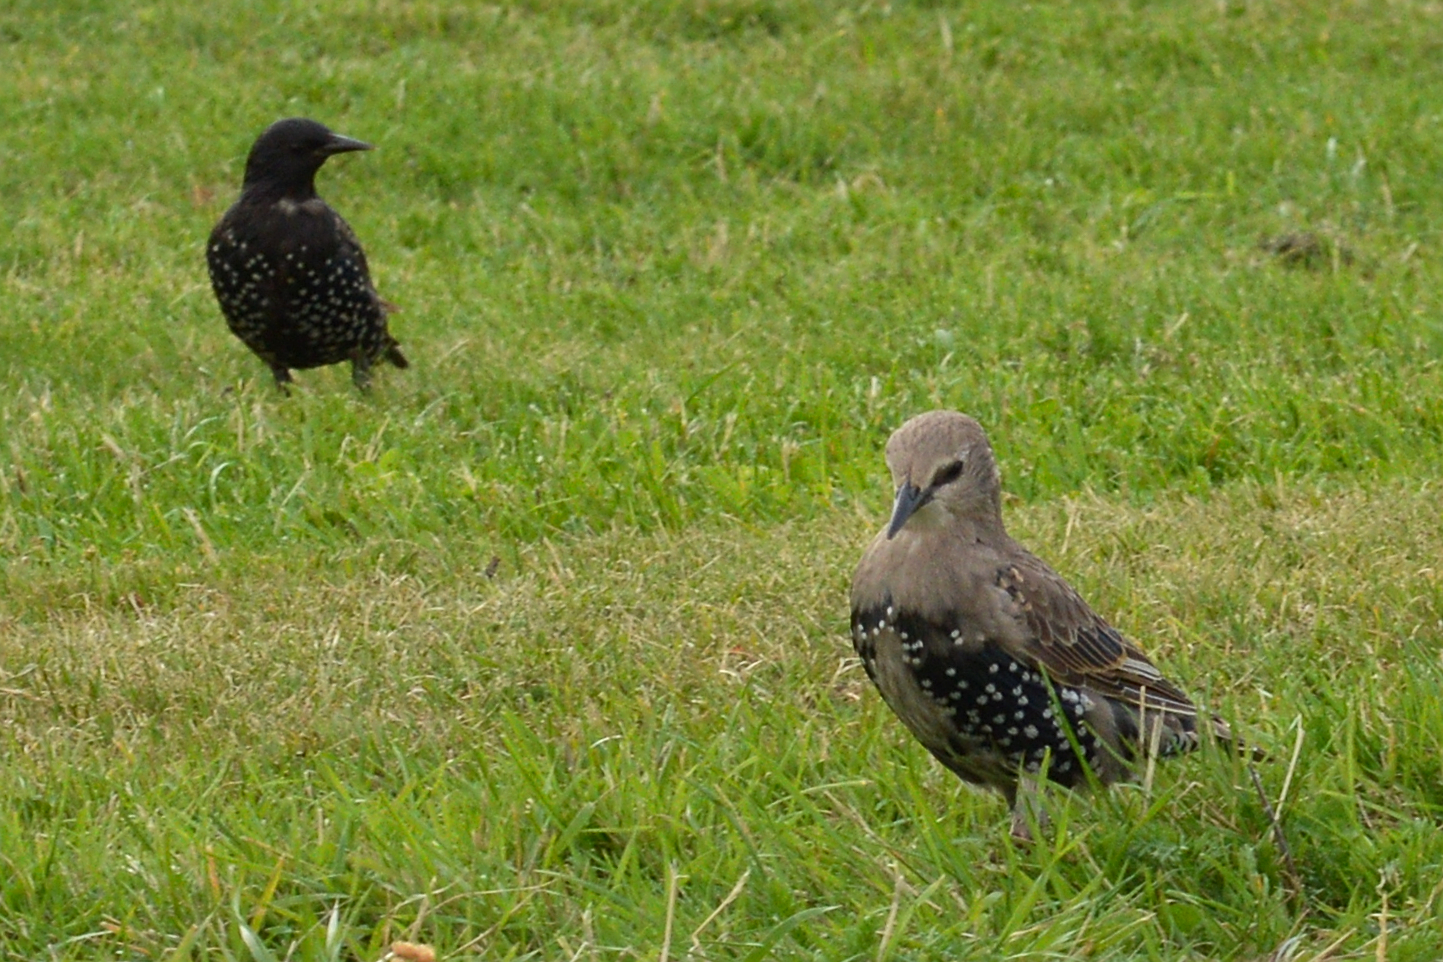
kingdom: Animalia
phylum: Chordata
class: Aves
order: Passeriformes
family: Sturnidae
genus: Sturnus
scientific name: Sturnus vulgaris
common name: Common starling
